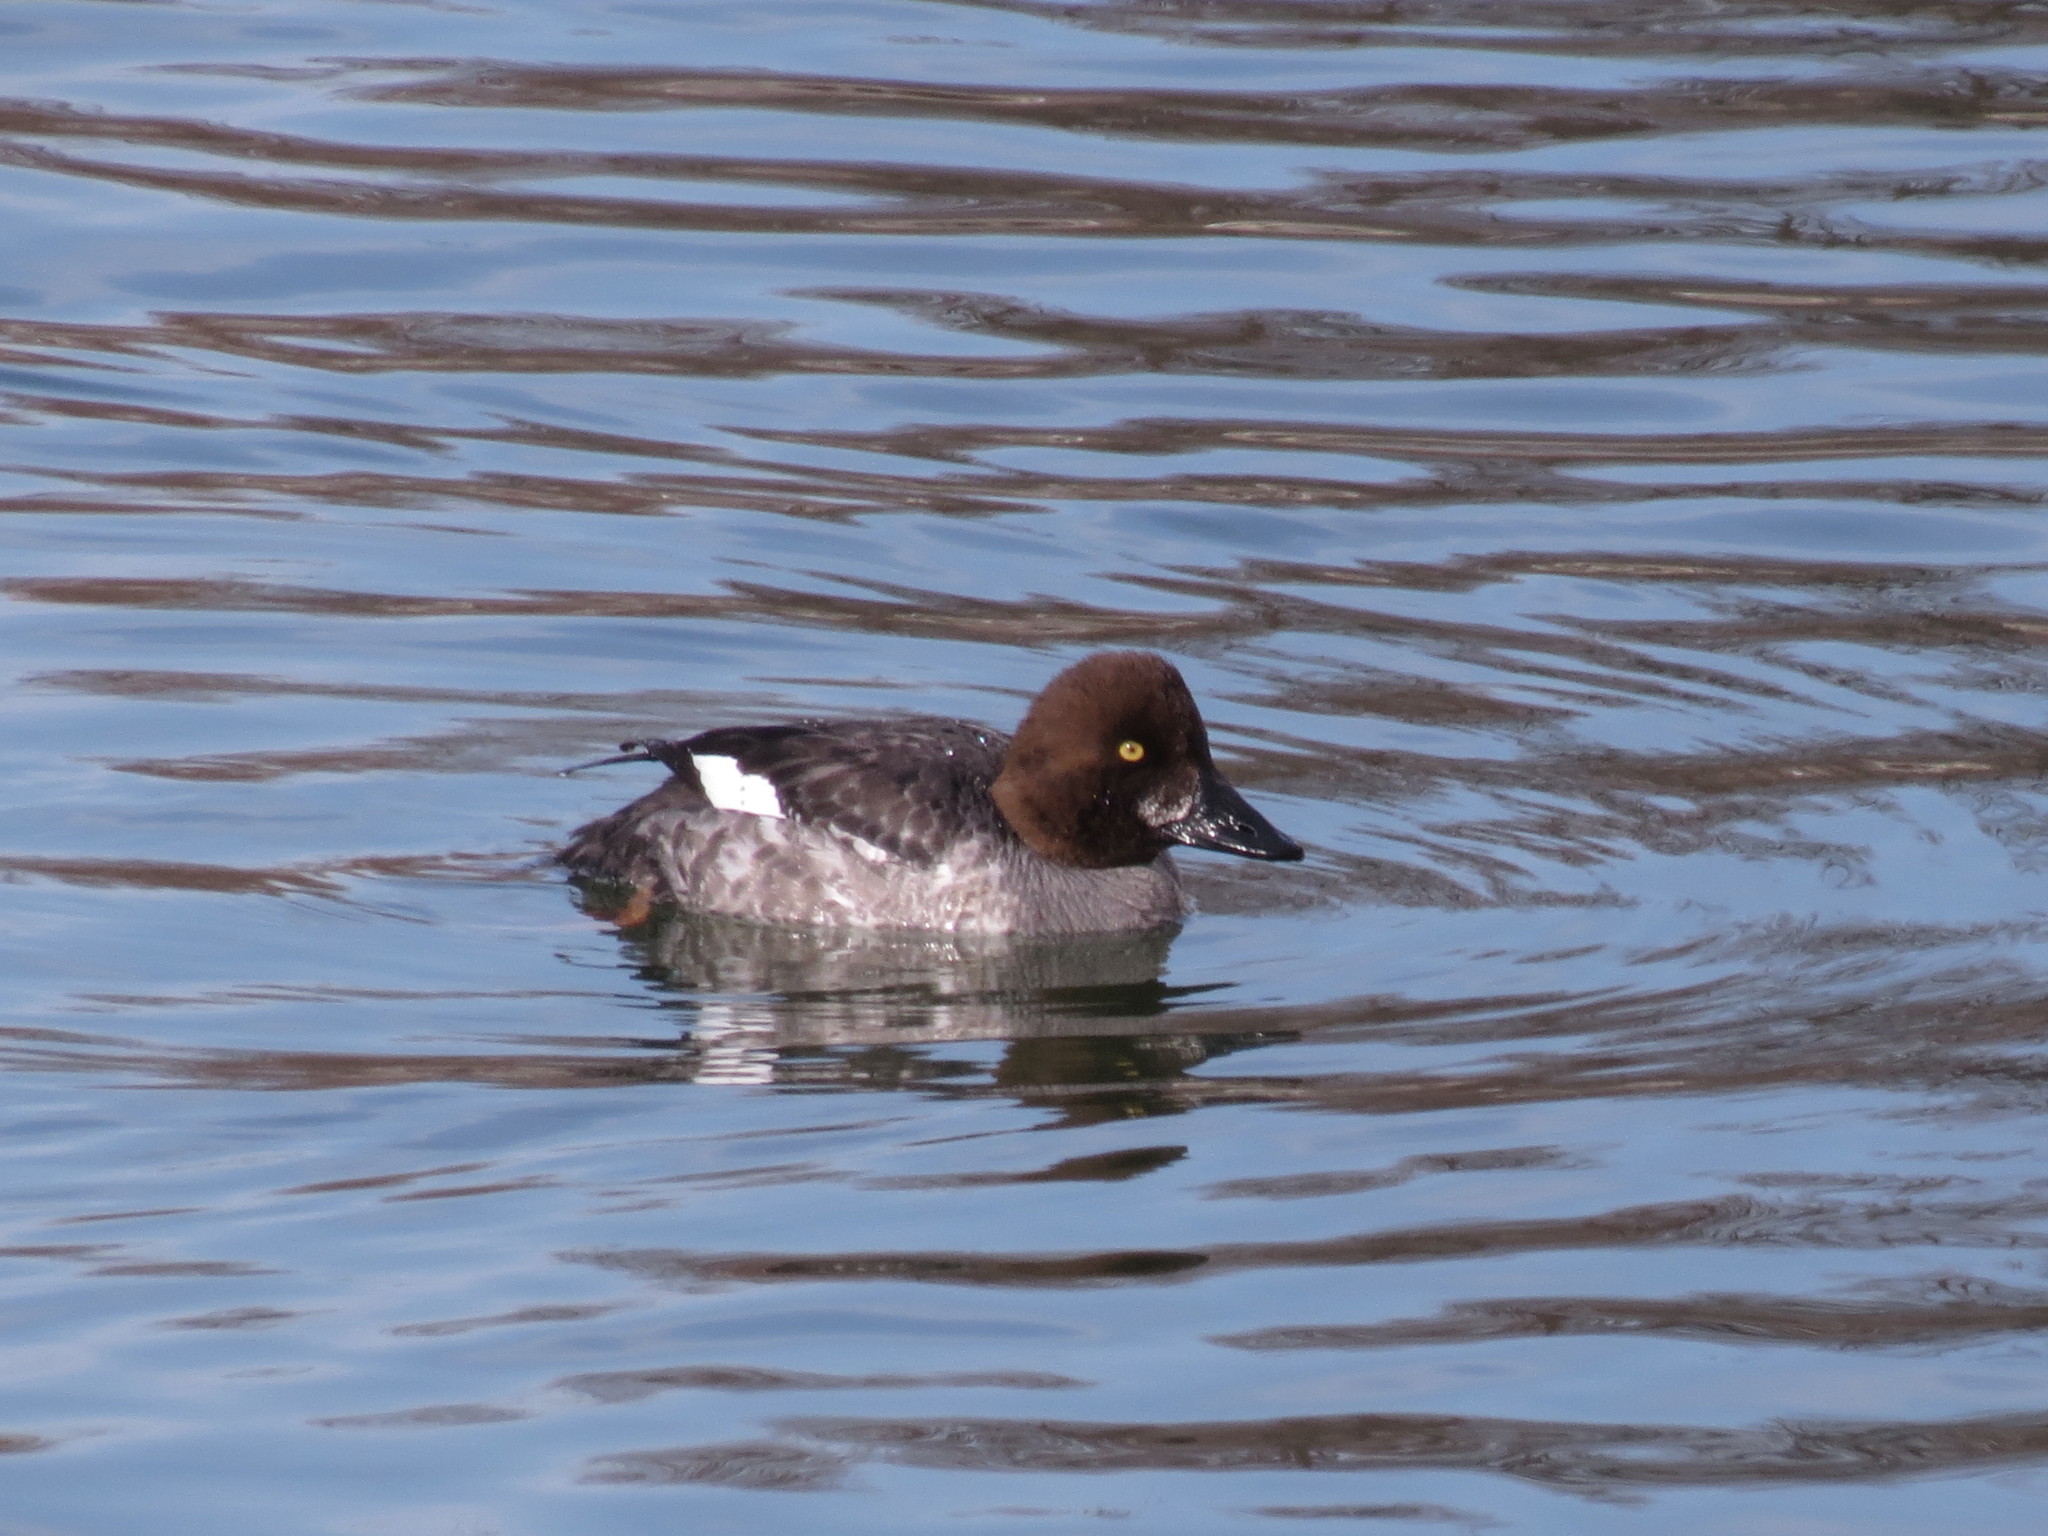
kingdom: Animalia
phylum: Chordata
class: Aves
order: Anseriformes
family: Anatidae
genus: Bucephala
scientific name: Bucephala clangula
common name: Common goldeneye
